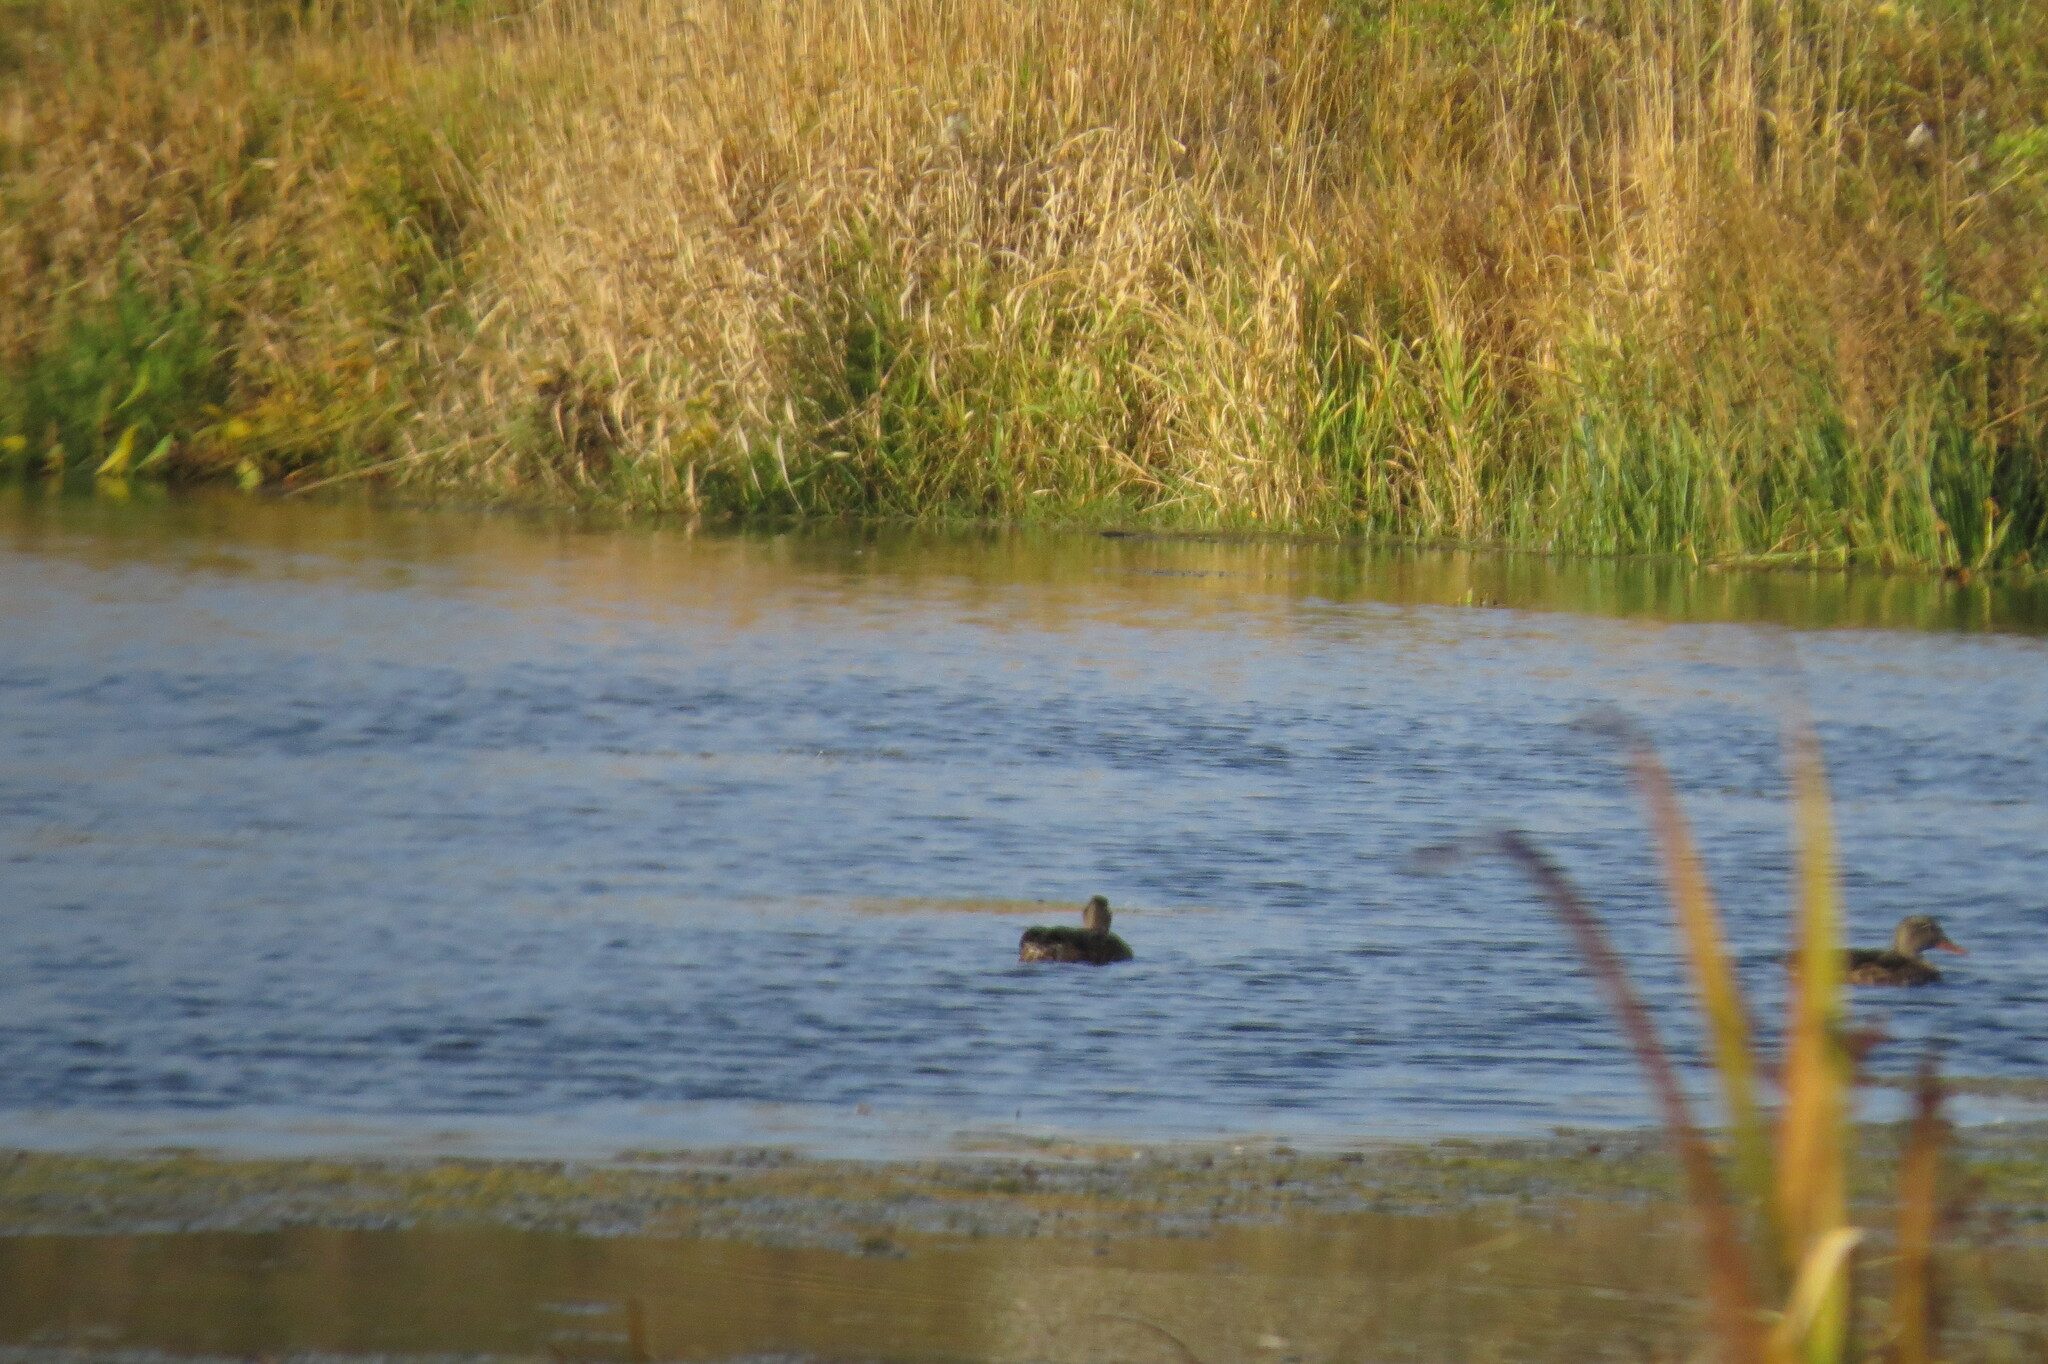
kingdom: Animalia
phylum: Chordata
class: Aves
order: Anseriformes
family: Anatidae
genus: Mareca
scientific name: Mareca strepera
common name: Gadwall
